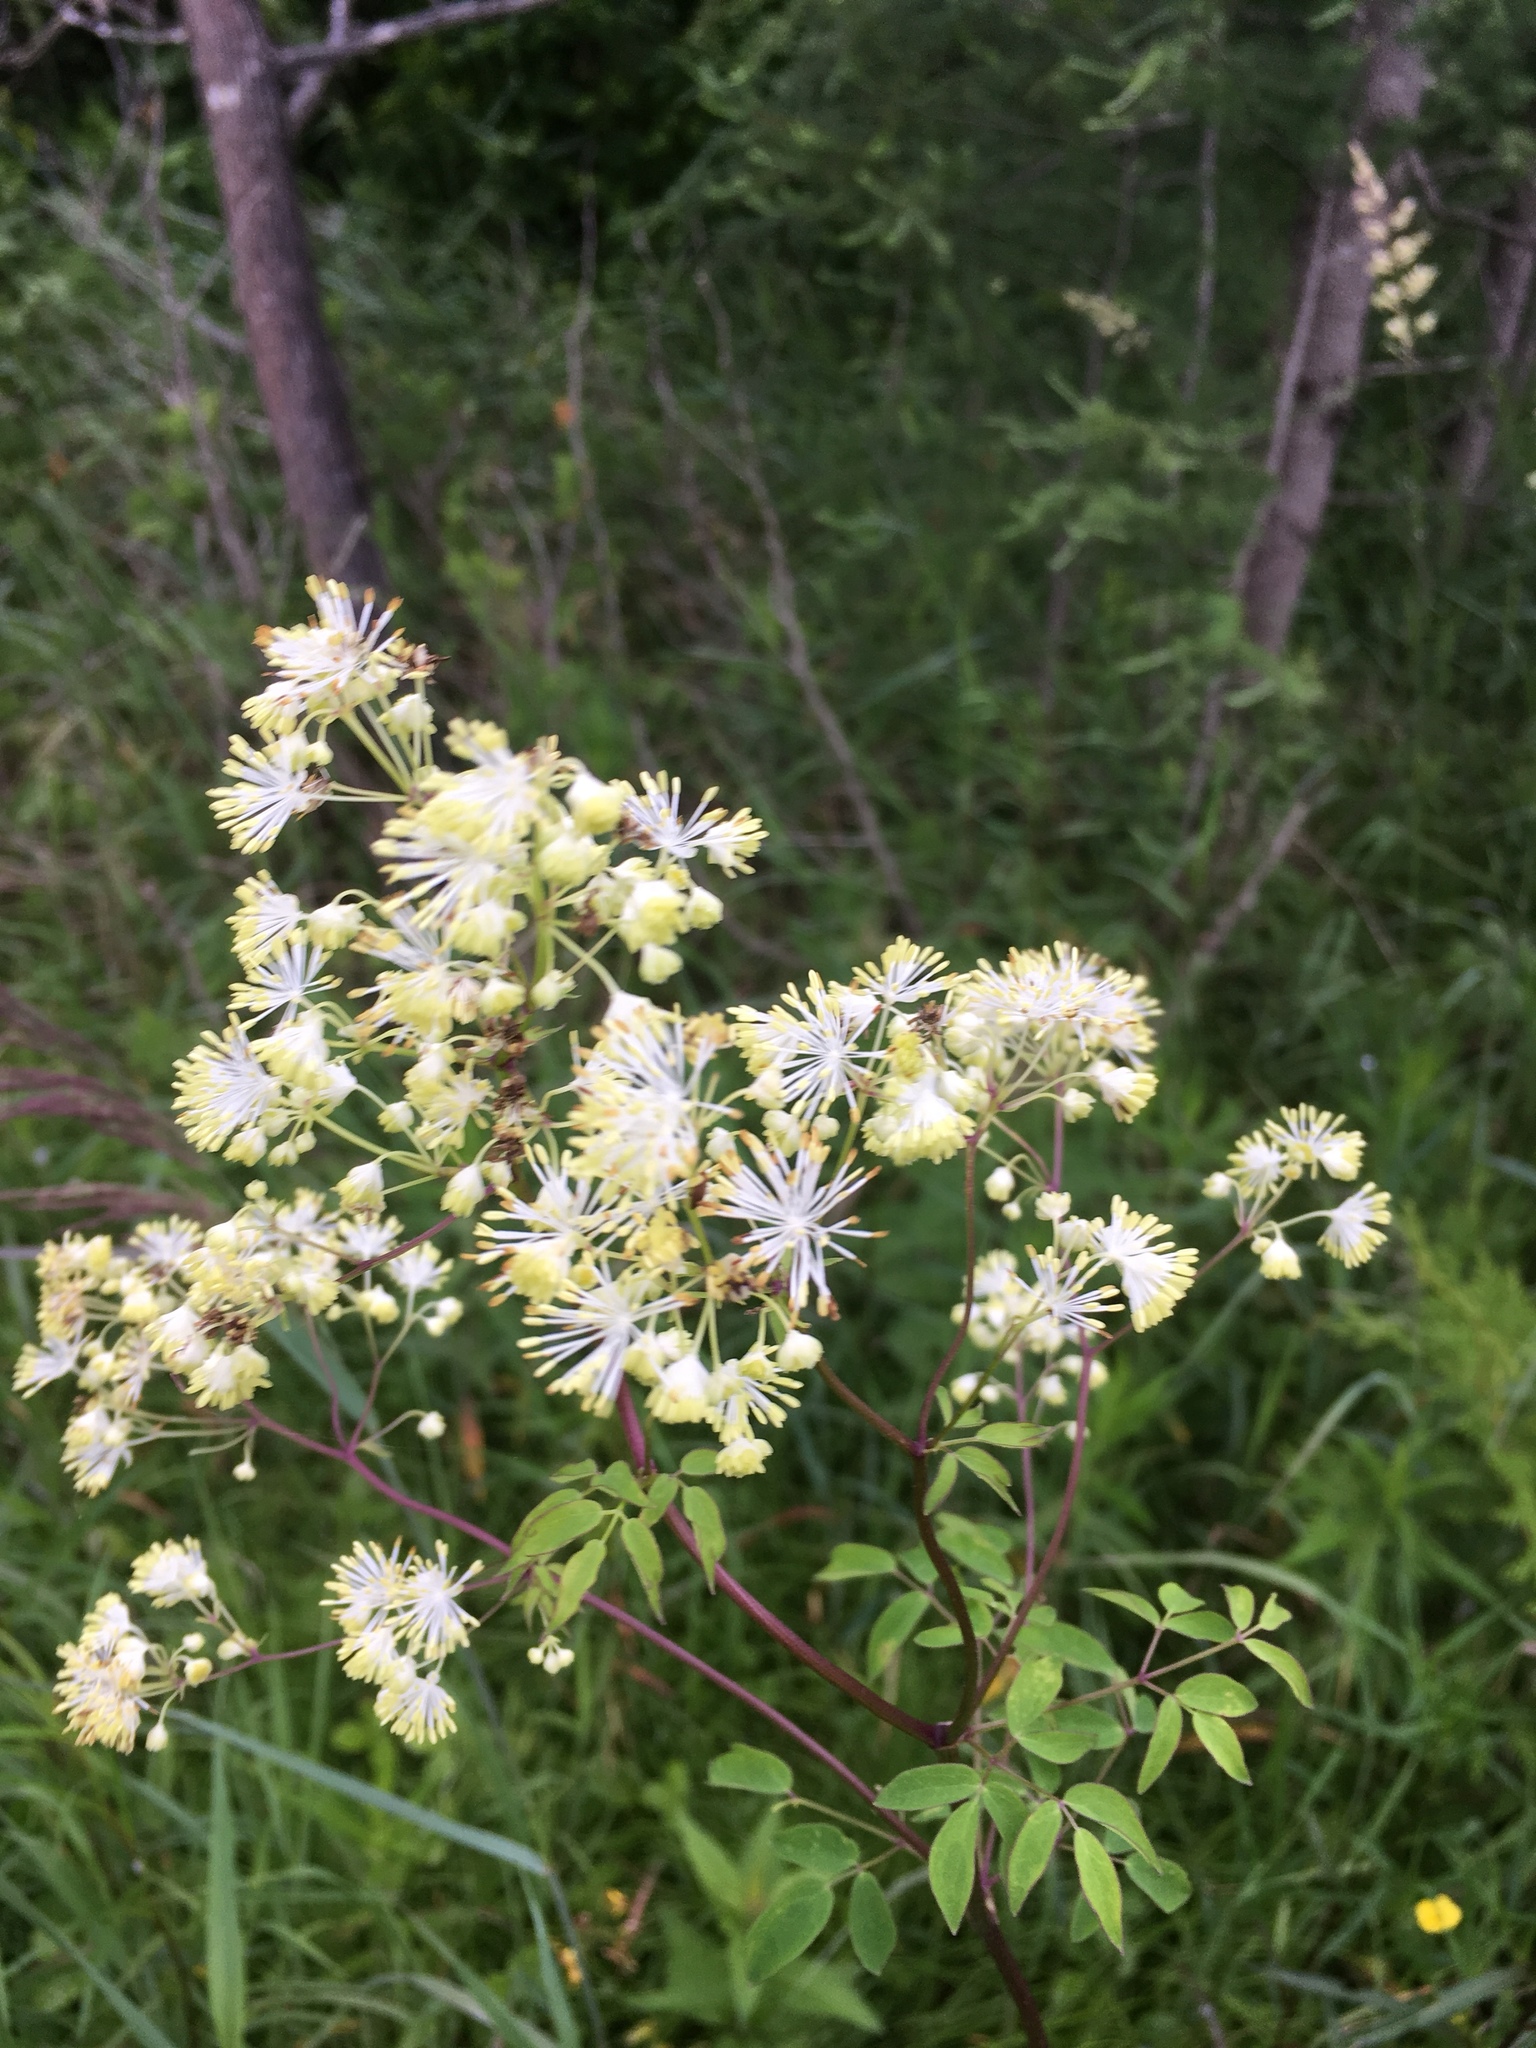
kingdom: Plantae
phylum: Tracheophyta
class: Magnoliopsida
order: Ranunculales
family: Ranunculaceae
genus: Thalictrum
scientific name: Thalictrum pubescens
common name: King-of-the-meadow
